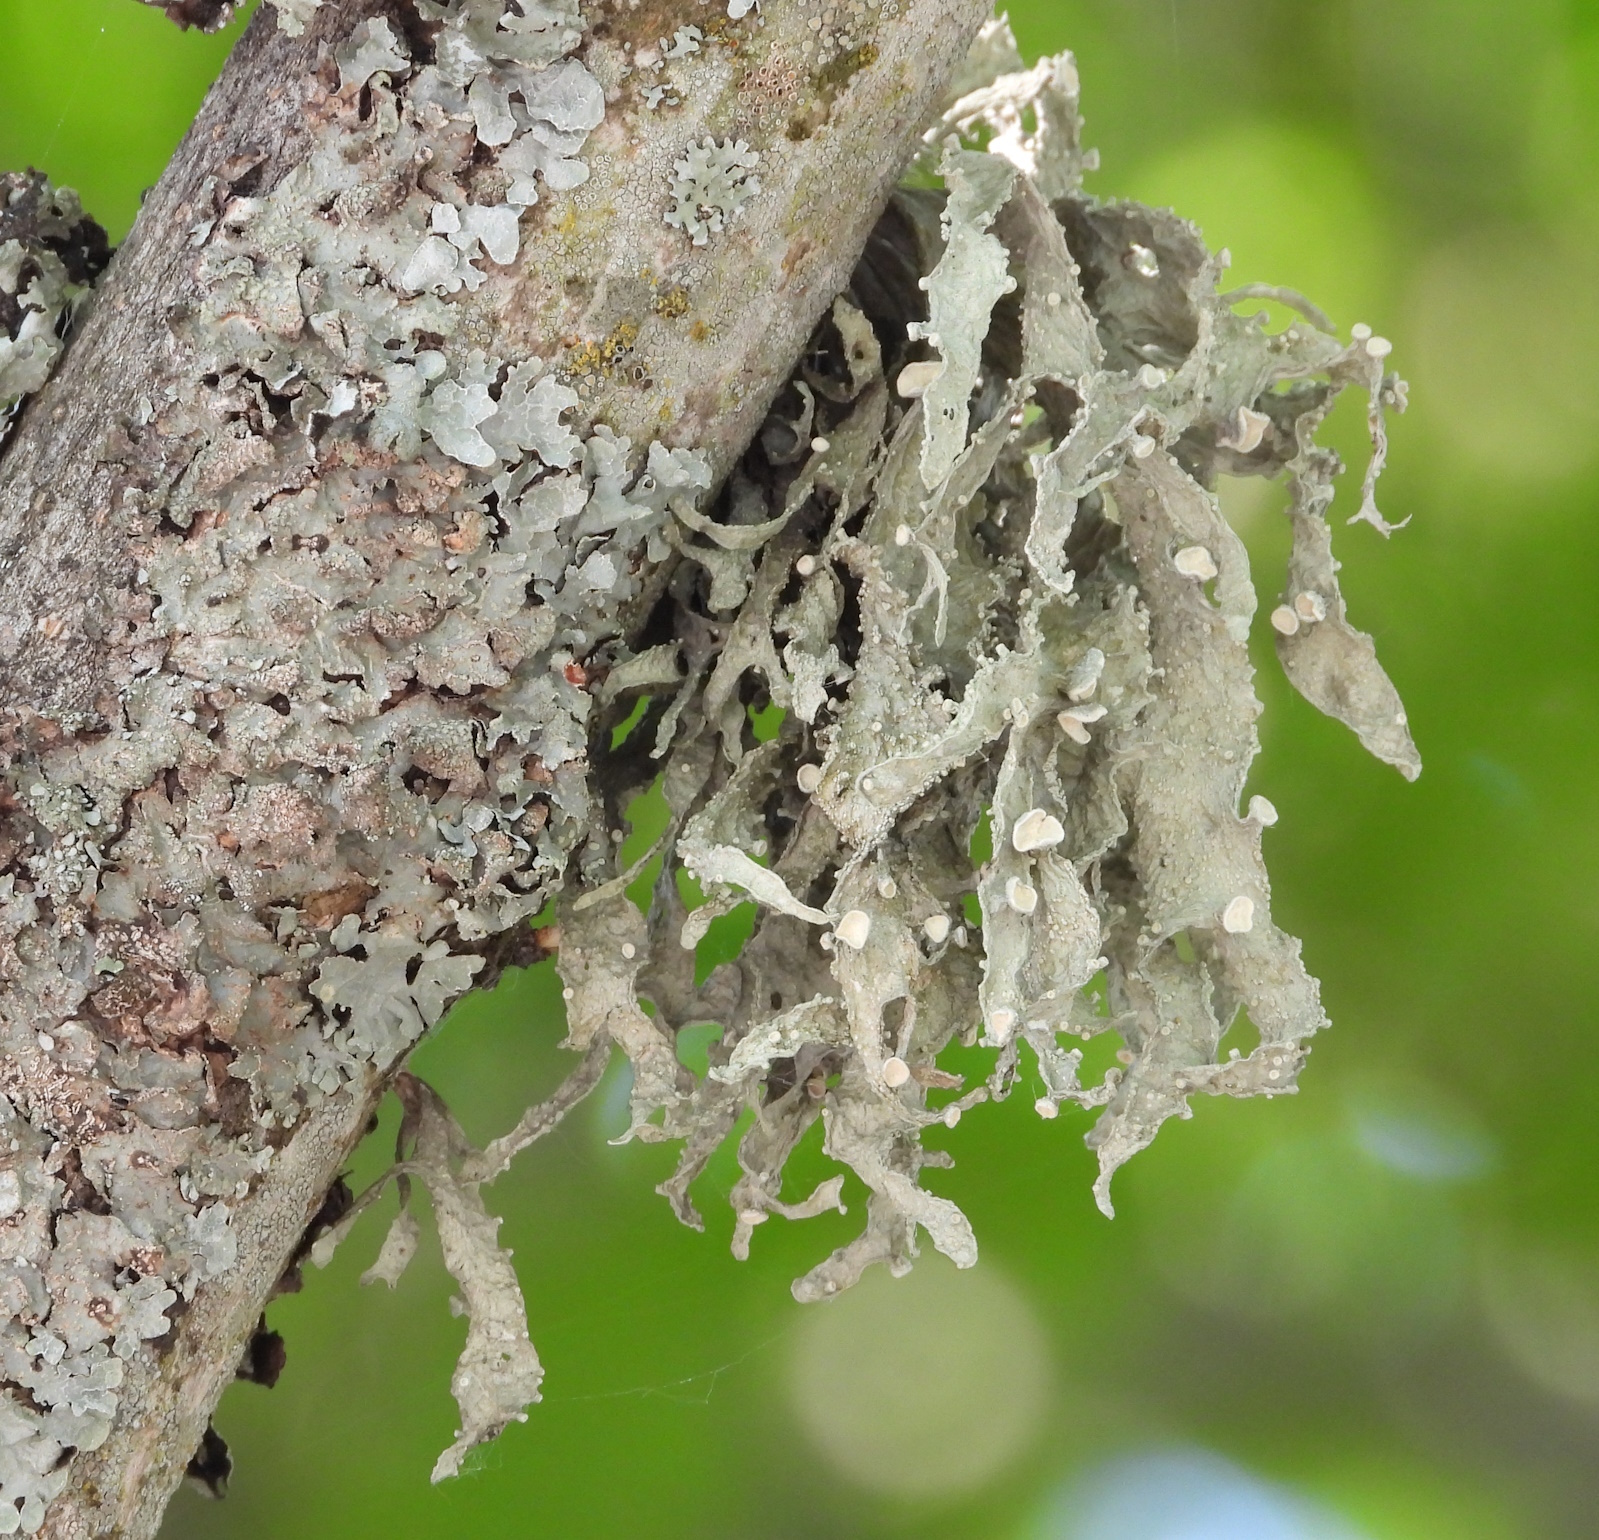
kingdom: Fungi
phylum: Ascomycota
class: Lecanoromycetes
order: Lecanorales
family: Ramalinaceae
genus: Ramalina
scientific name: Ramalina fraxinea
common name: Cartilage lichen
